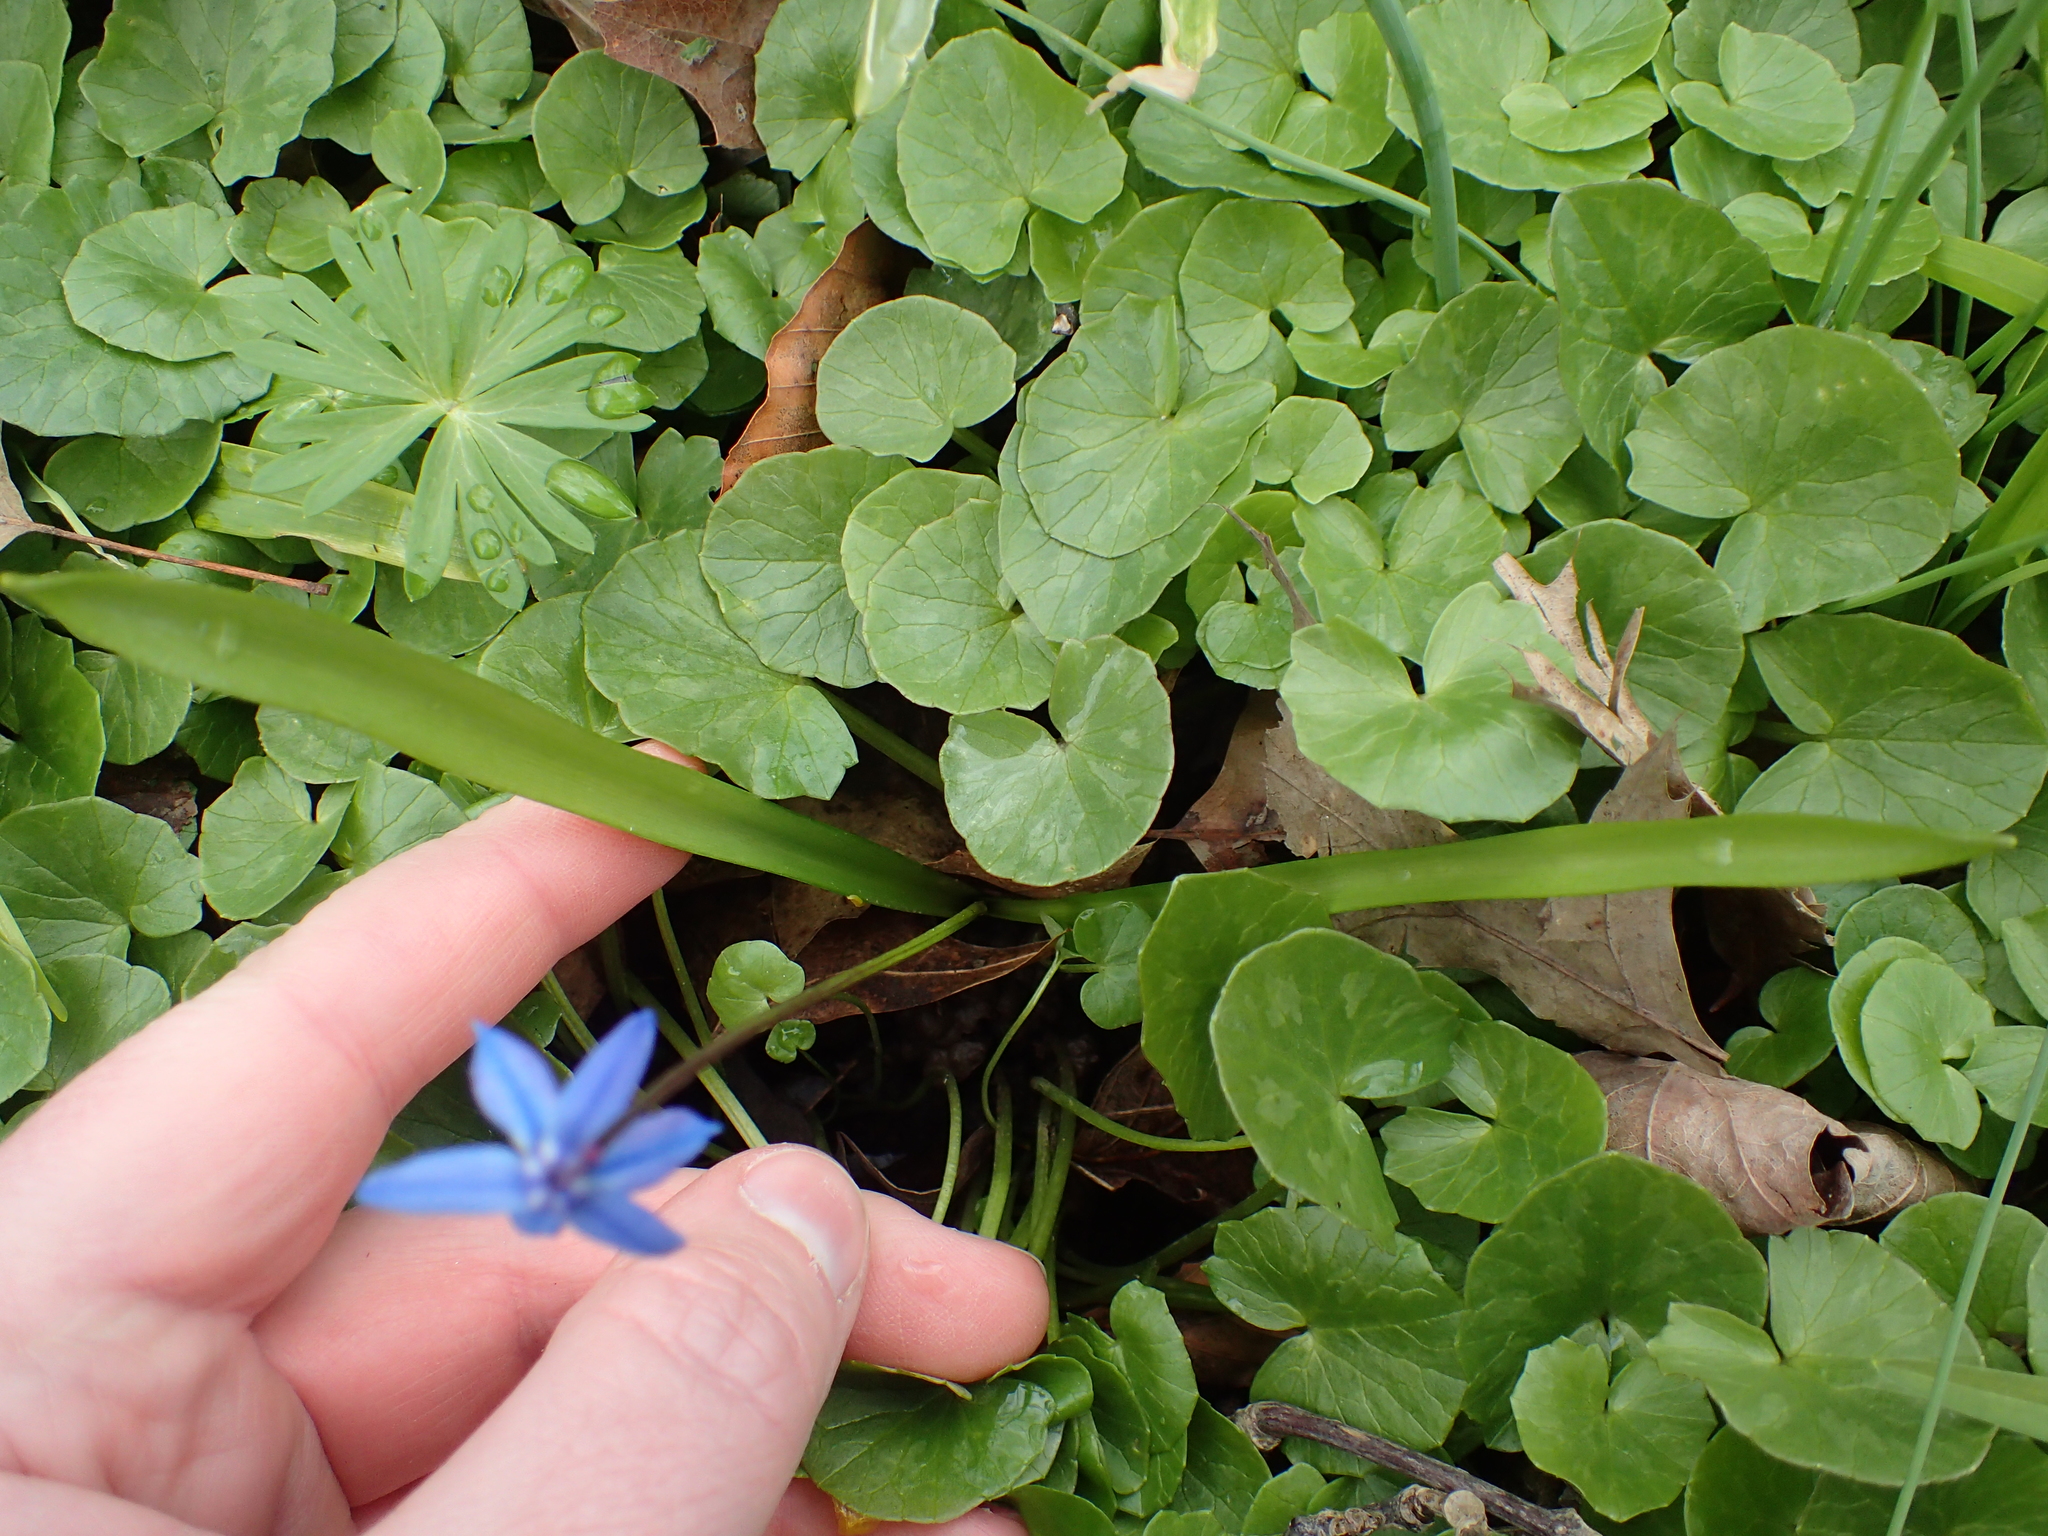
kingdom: Plantae
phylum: Tracheophyta
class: Liliopsida
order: Asparagales
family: Asparagaceae
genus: Scilla
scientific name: Scilla siberica
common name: Siberian squill
